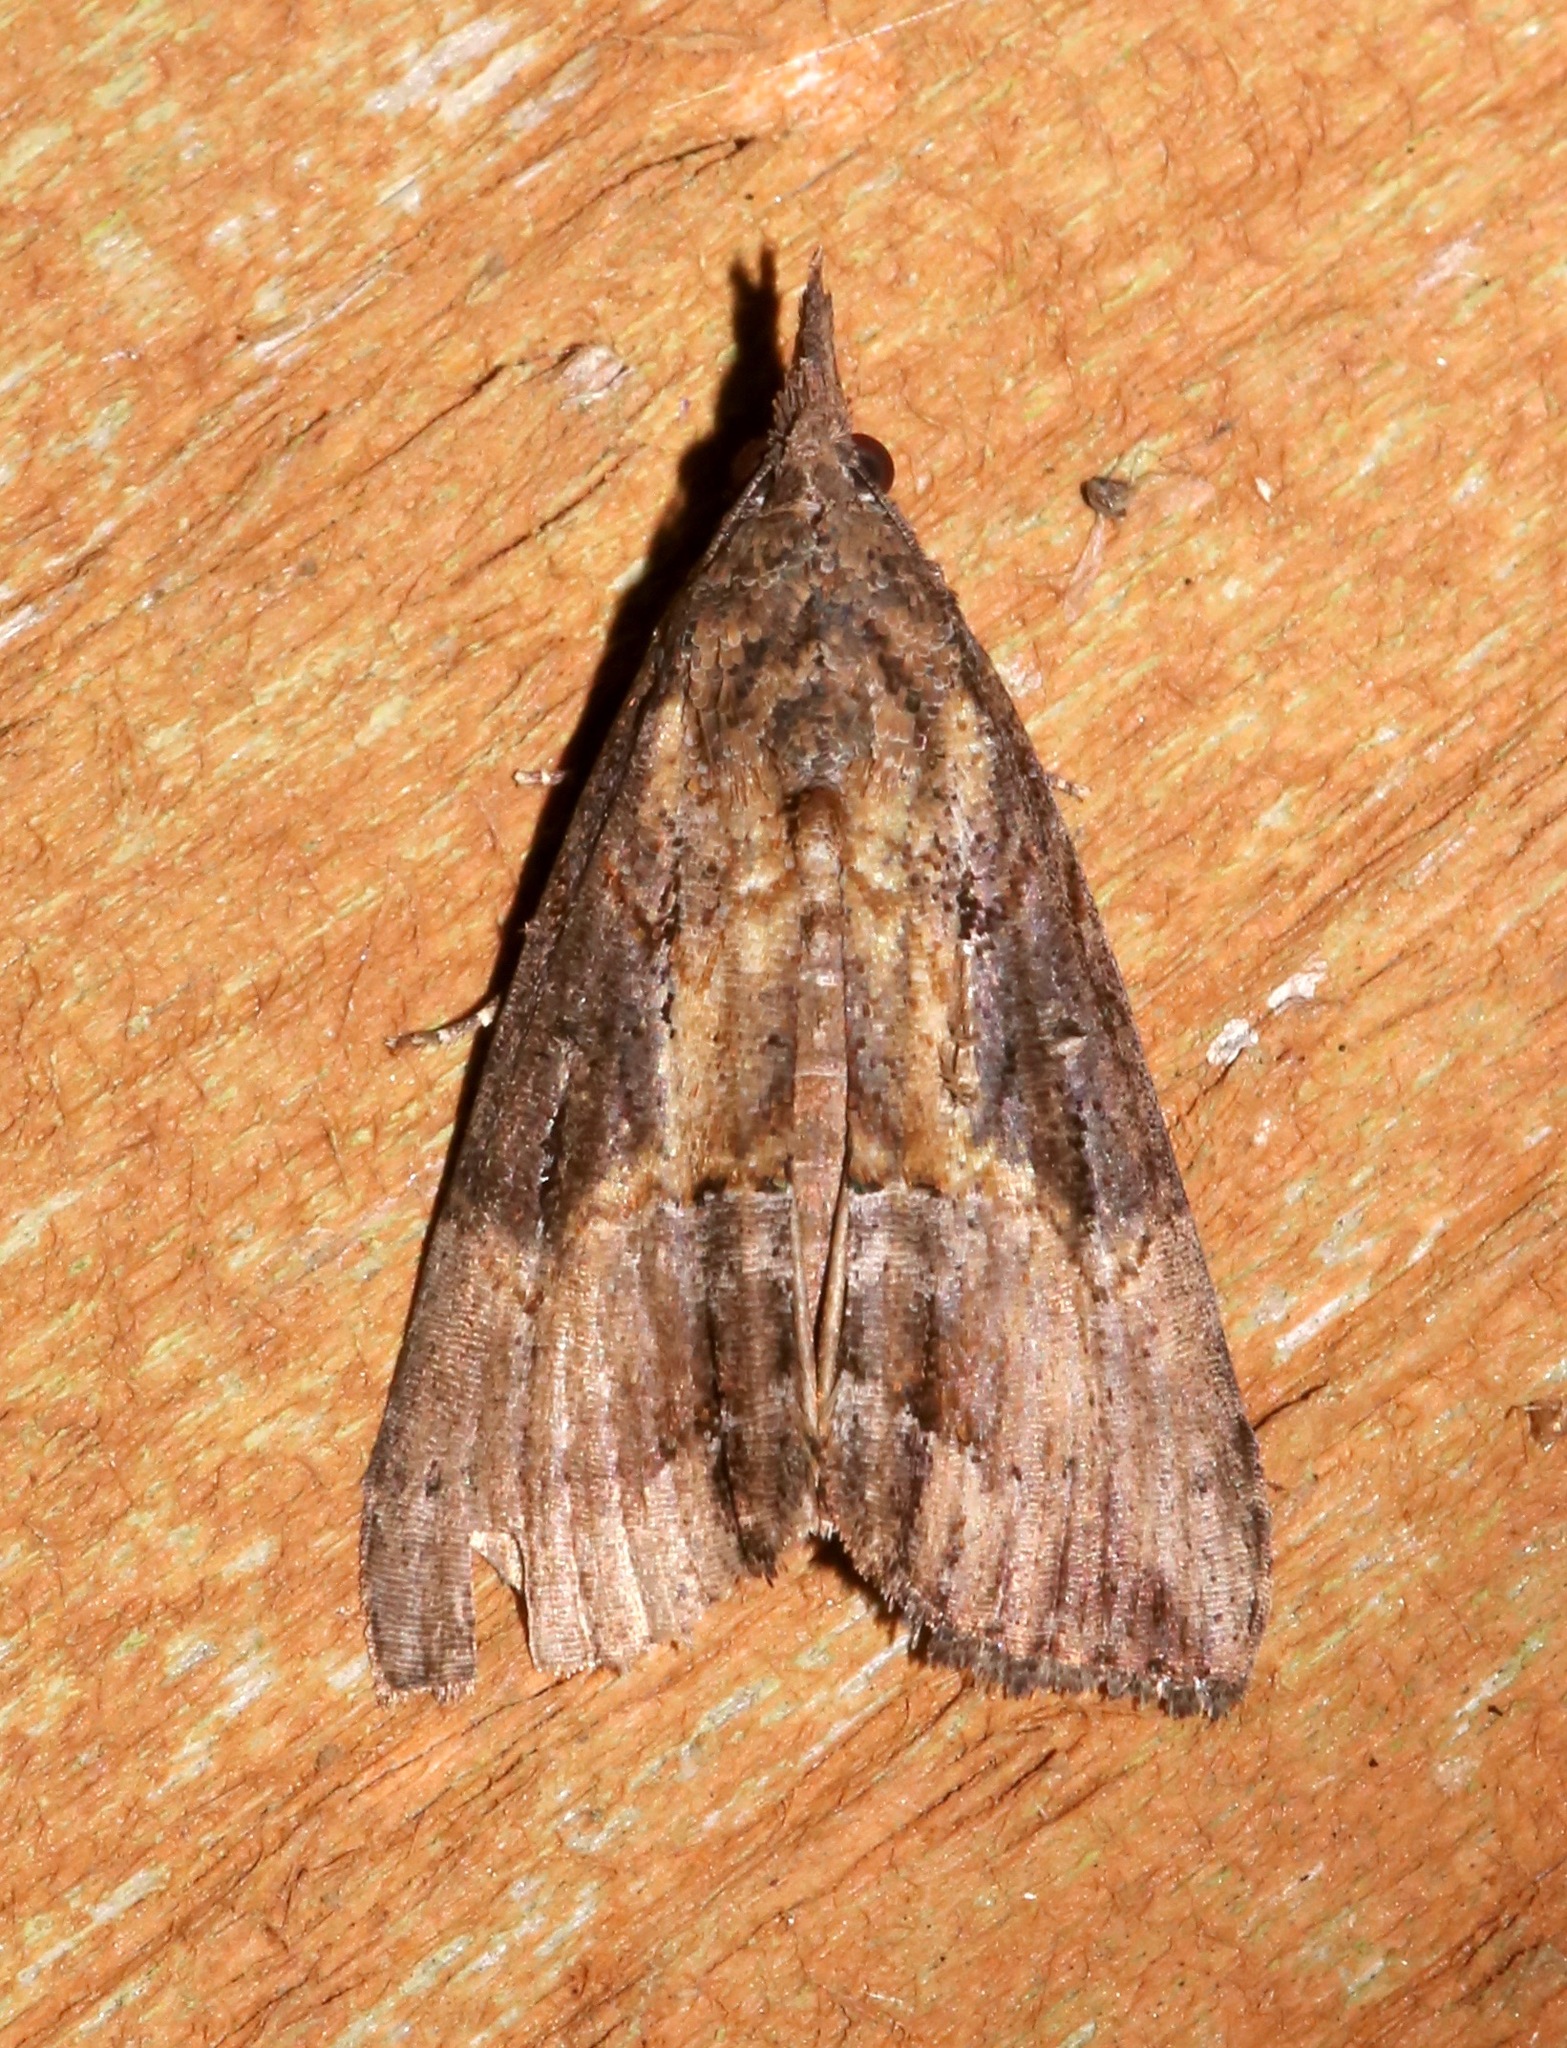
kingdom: Animalia
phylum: Arthropoda
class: Insecta
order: Lepidoptera
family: Erebidae
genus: Hypena
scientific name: Hypena scabra
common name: Green cloverworm
